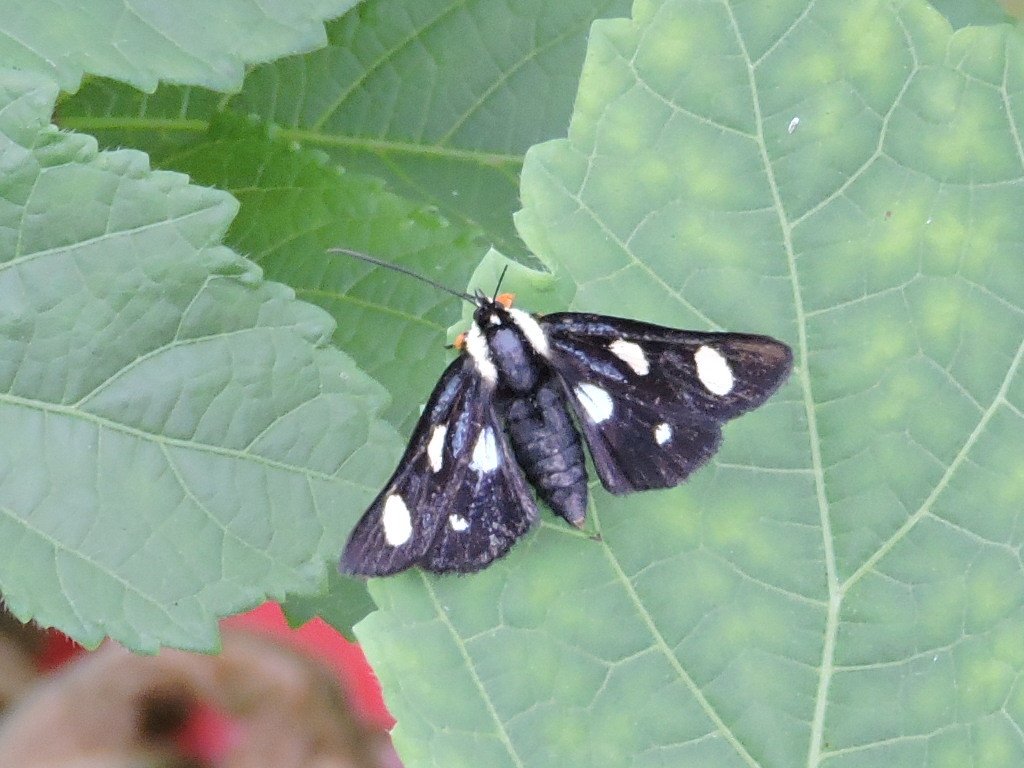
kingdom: Animalia
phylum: Arthropoda
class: Insecta
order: Lepidoptera
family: Noctuidae
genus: Alypia
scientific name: Alypia octomaculata
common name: Eight-spotted forester
